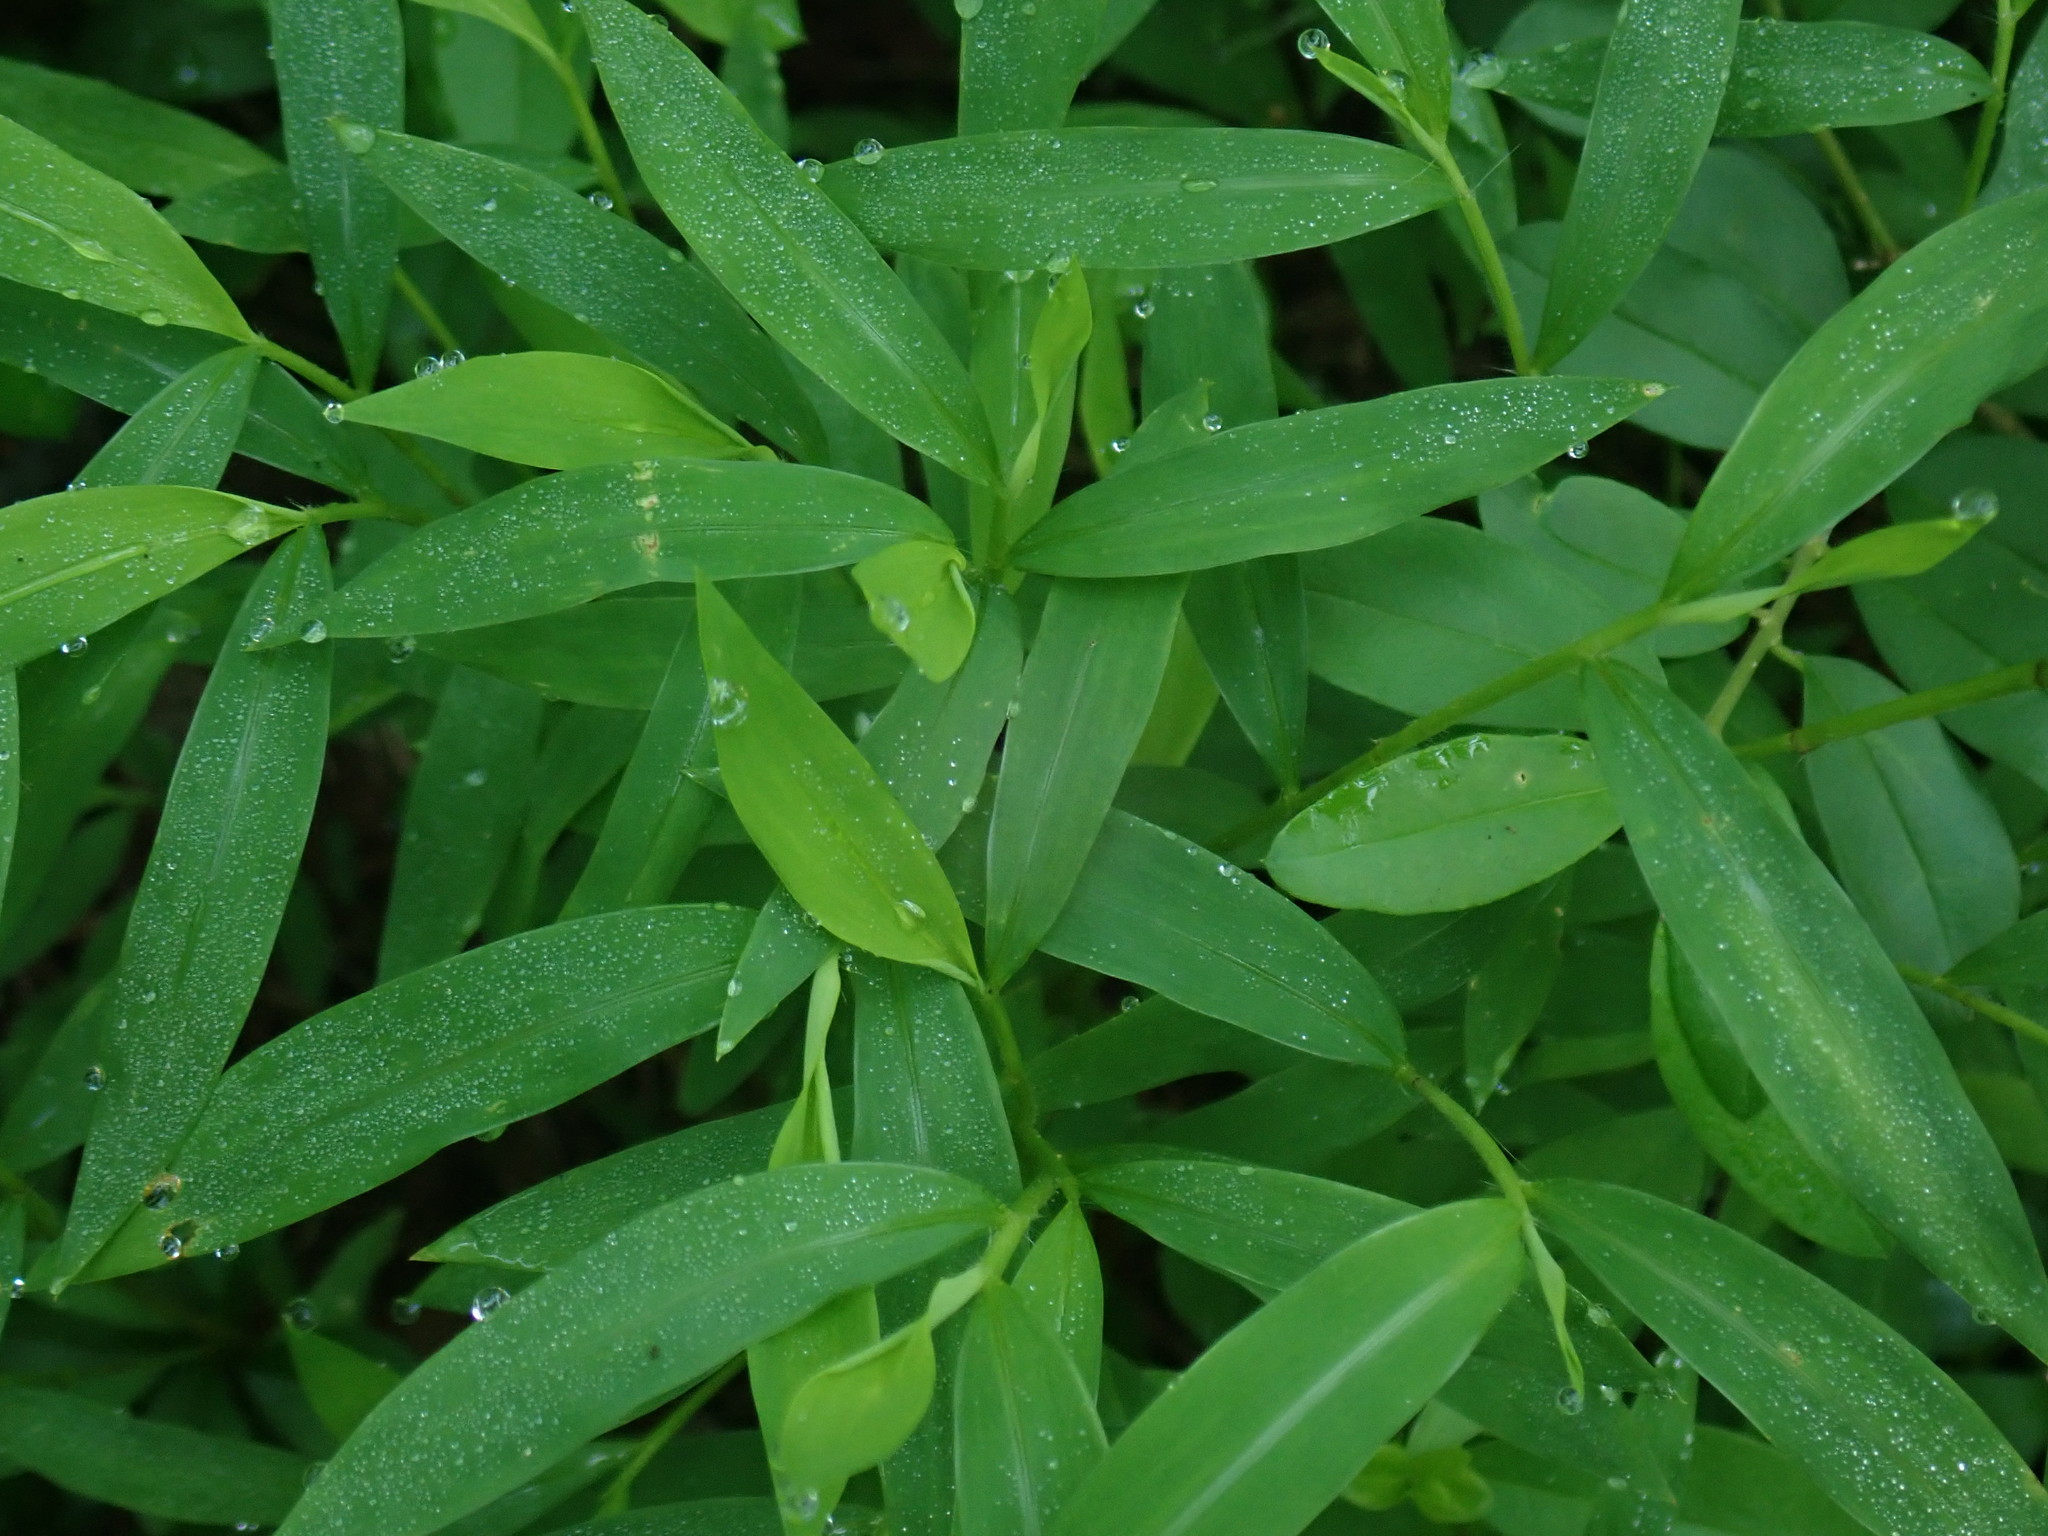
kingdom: Plantae
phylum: Tracheophyta
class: Liliopsida
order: Poales
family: Poaceae
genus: Microstegium
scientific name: Microstegium vimineum
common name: Japanese stiltgrass
